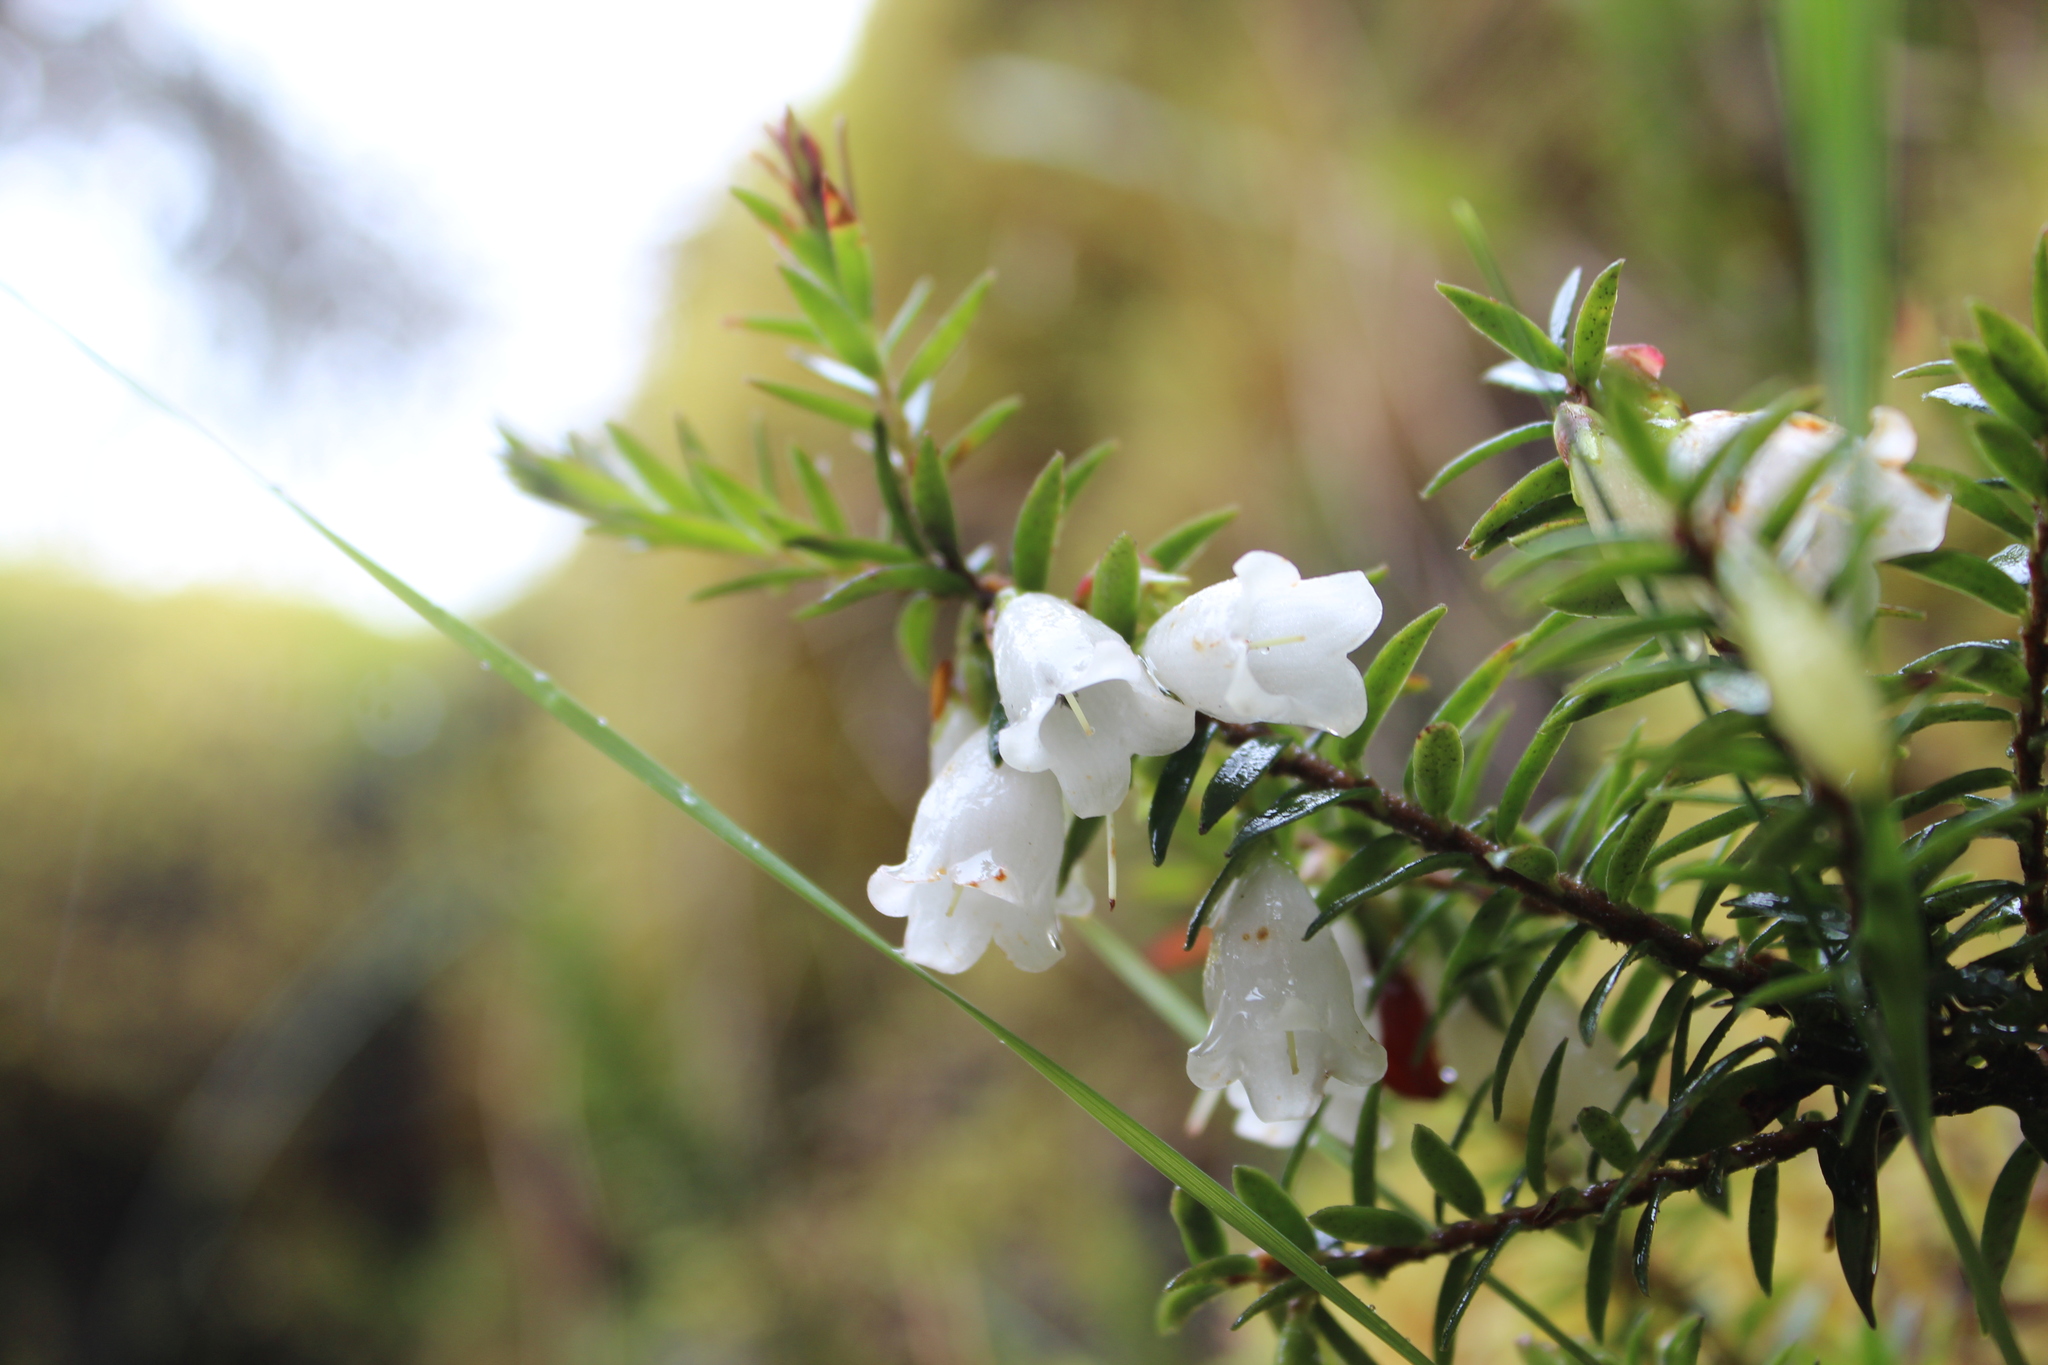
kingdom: Plantae
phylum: Tracheophyta
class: Magnoliopsida
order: Ericales
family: Ericaceae
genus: Disterigma
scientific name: Disterigma pernettyoides
